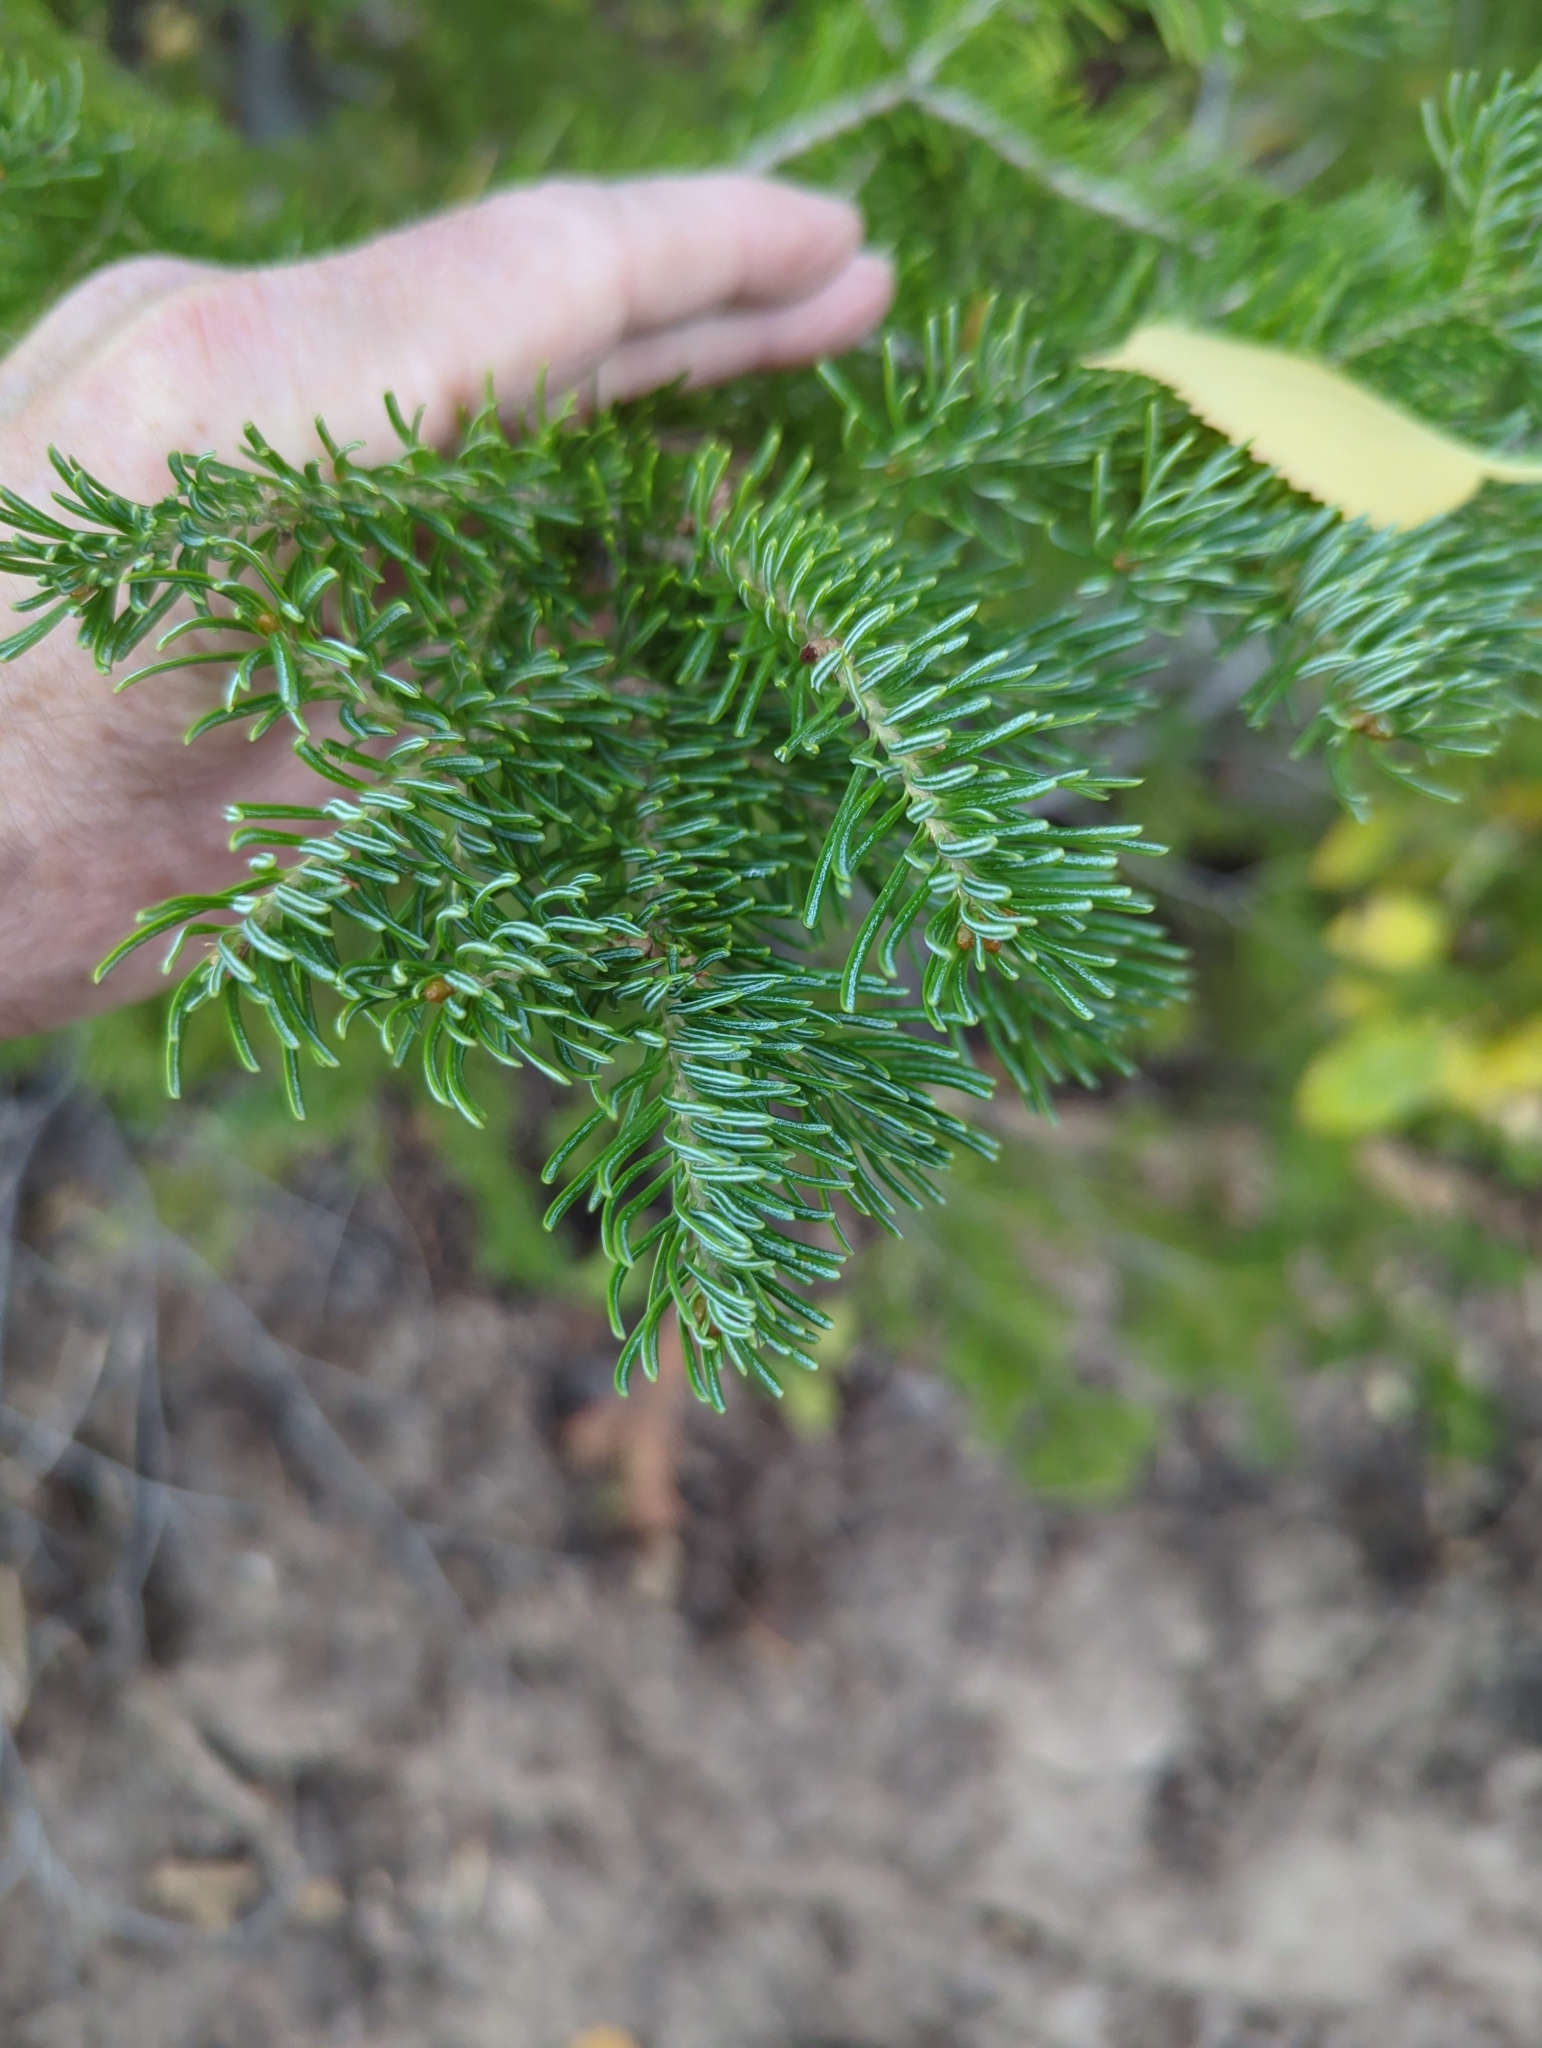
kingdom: Plantae
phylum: Tracheophyta
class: Pinopsida
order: Pinales
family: Pinaceae
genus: Abies
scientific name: Abies lasiocarpa
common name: Subalpine fir
